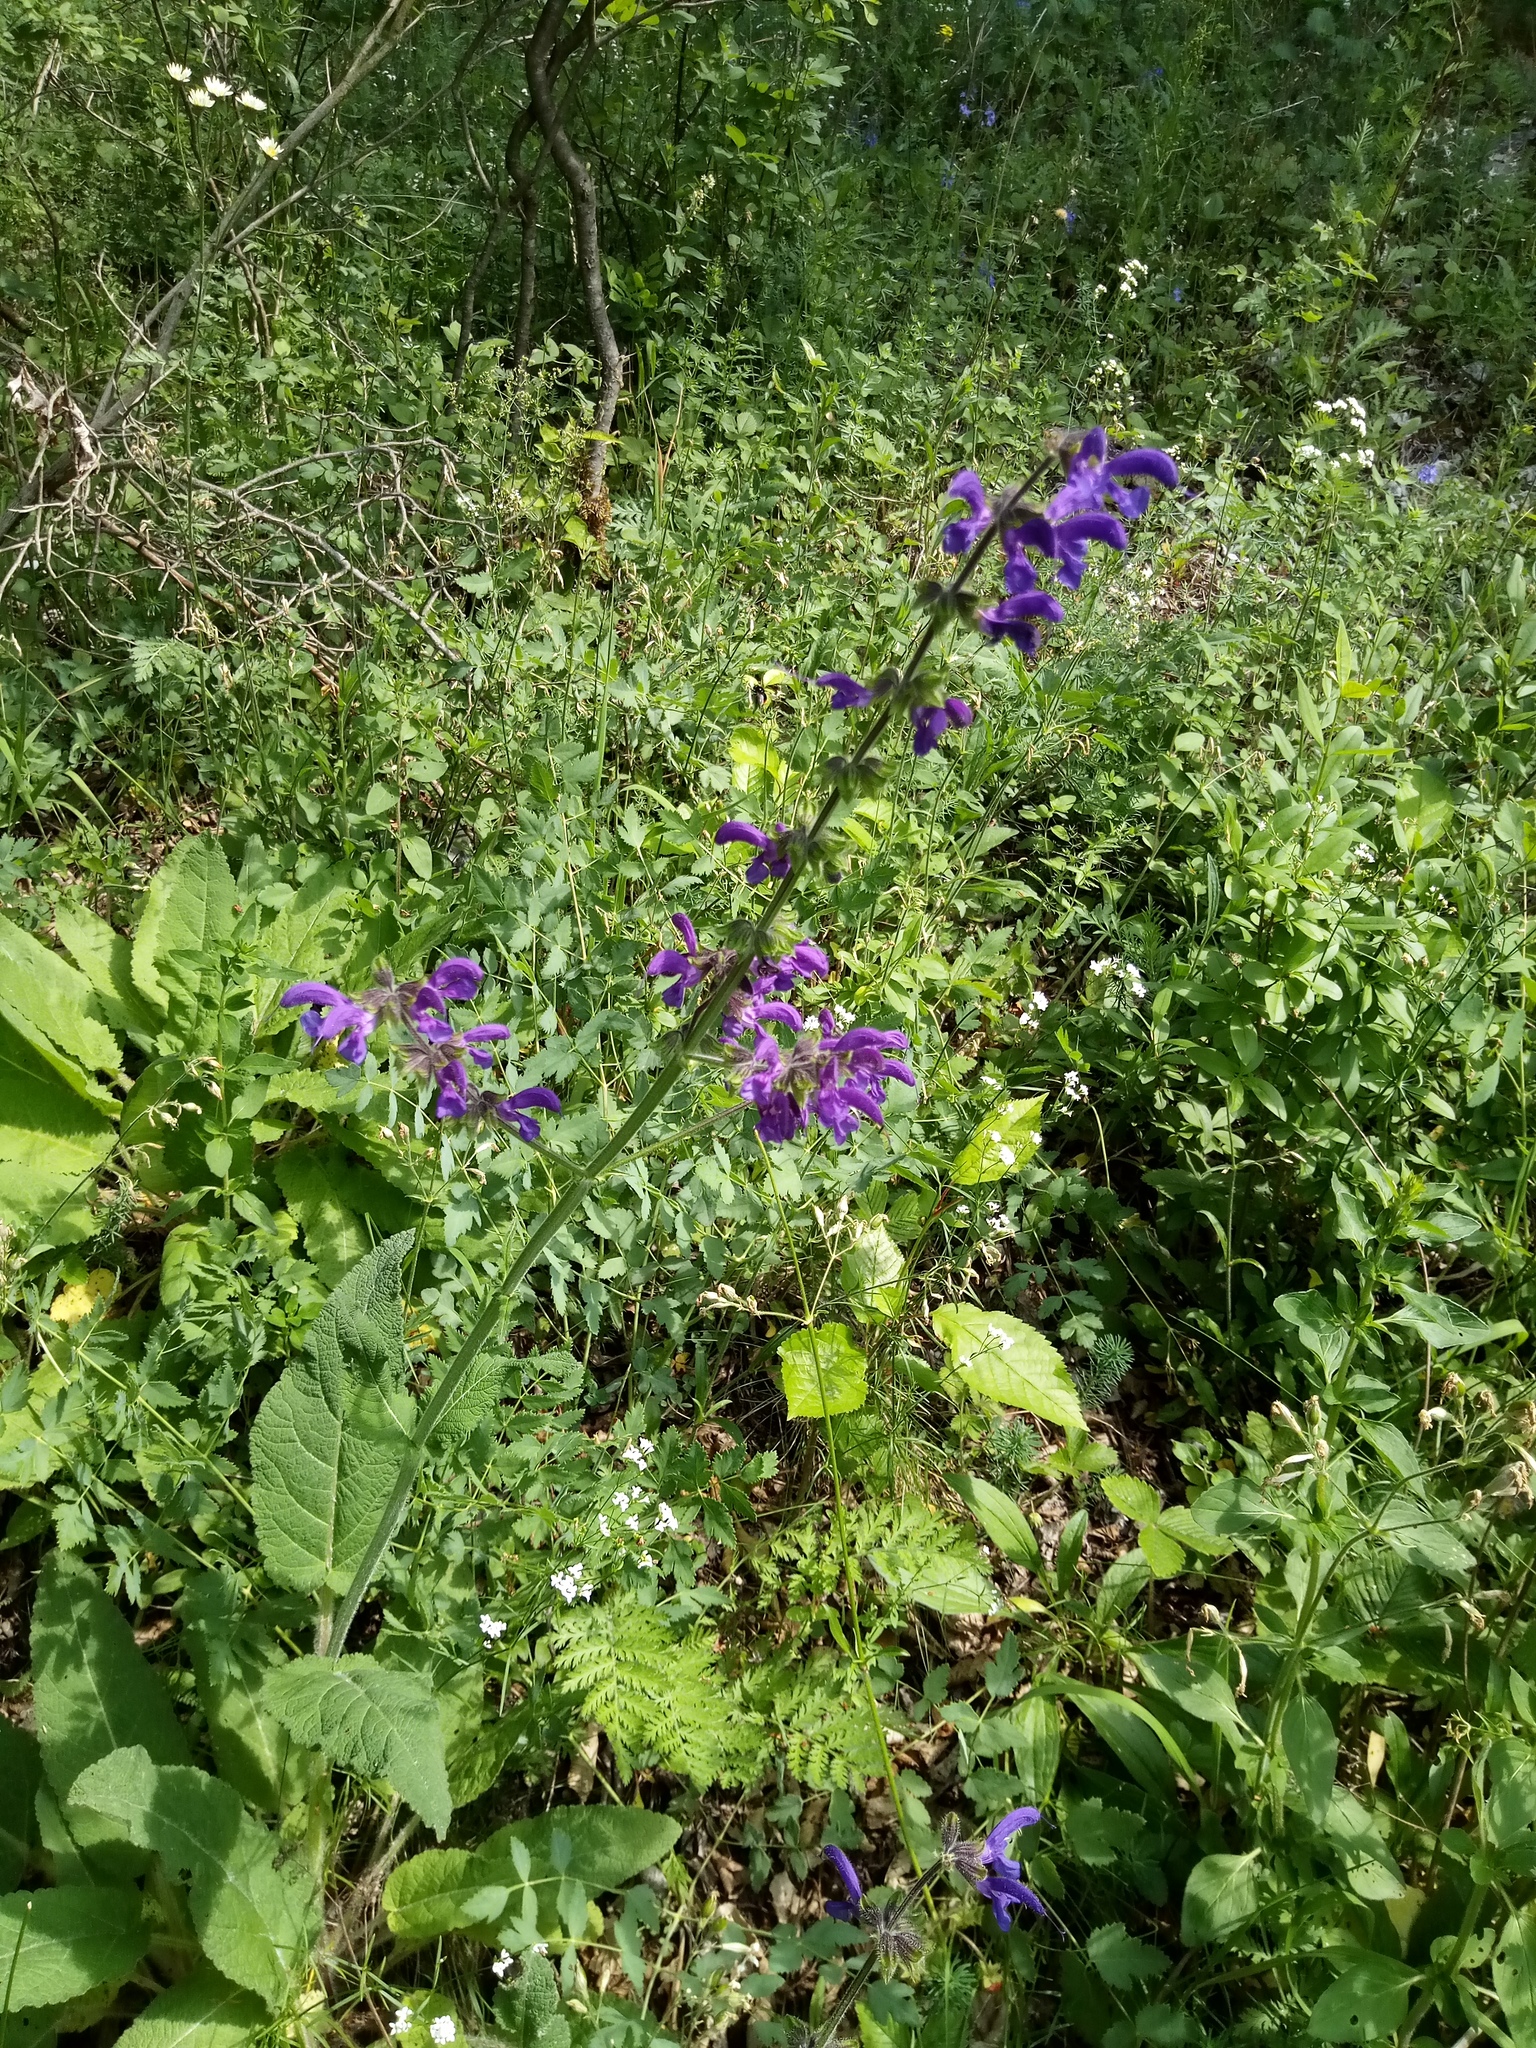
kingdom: Plantae
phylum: Tracheophyta
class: Magnoliopsida
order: Lamiales
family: Lamiaceae
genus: Salvia
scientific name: Salvia pratensis
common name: Meadow sage
